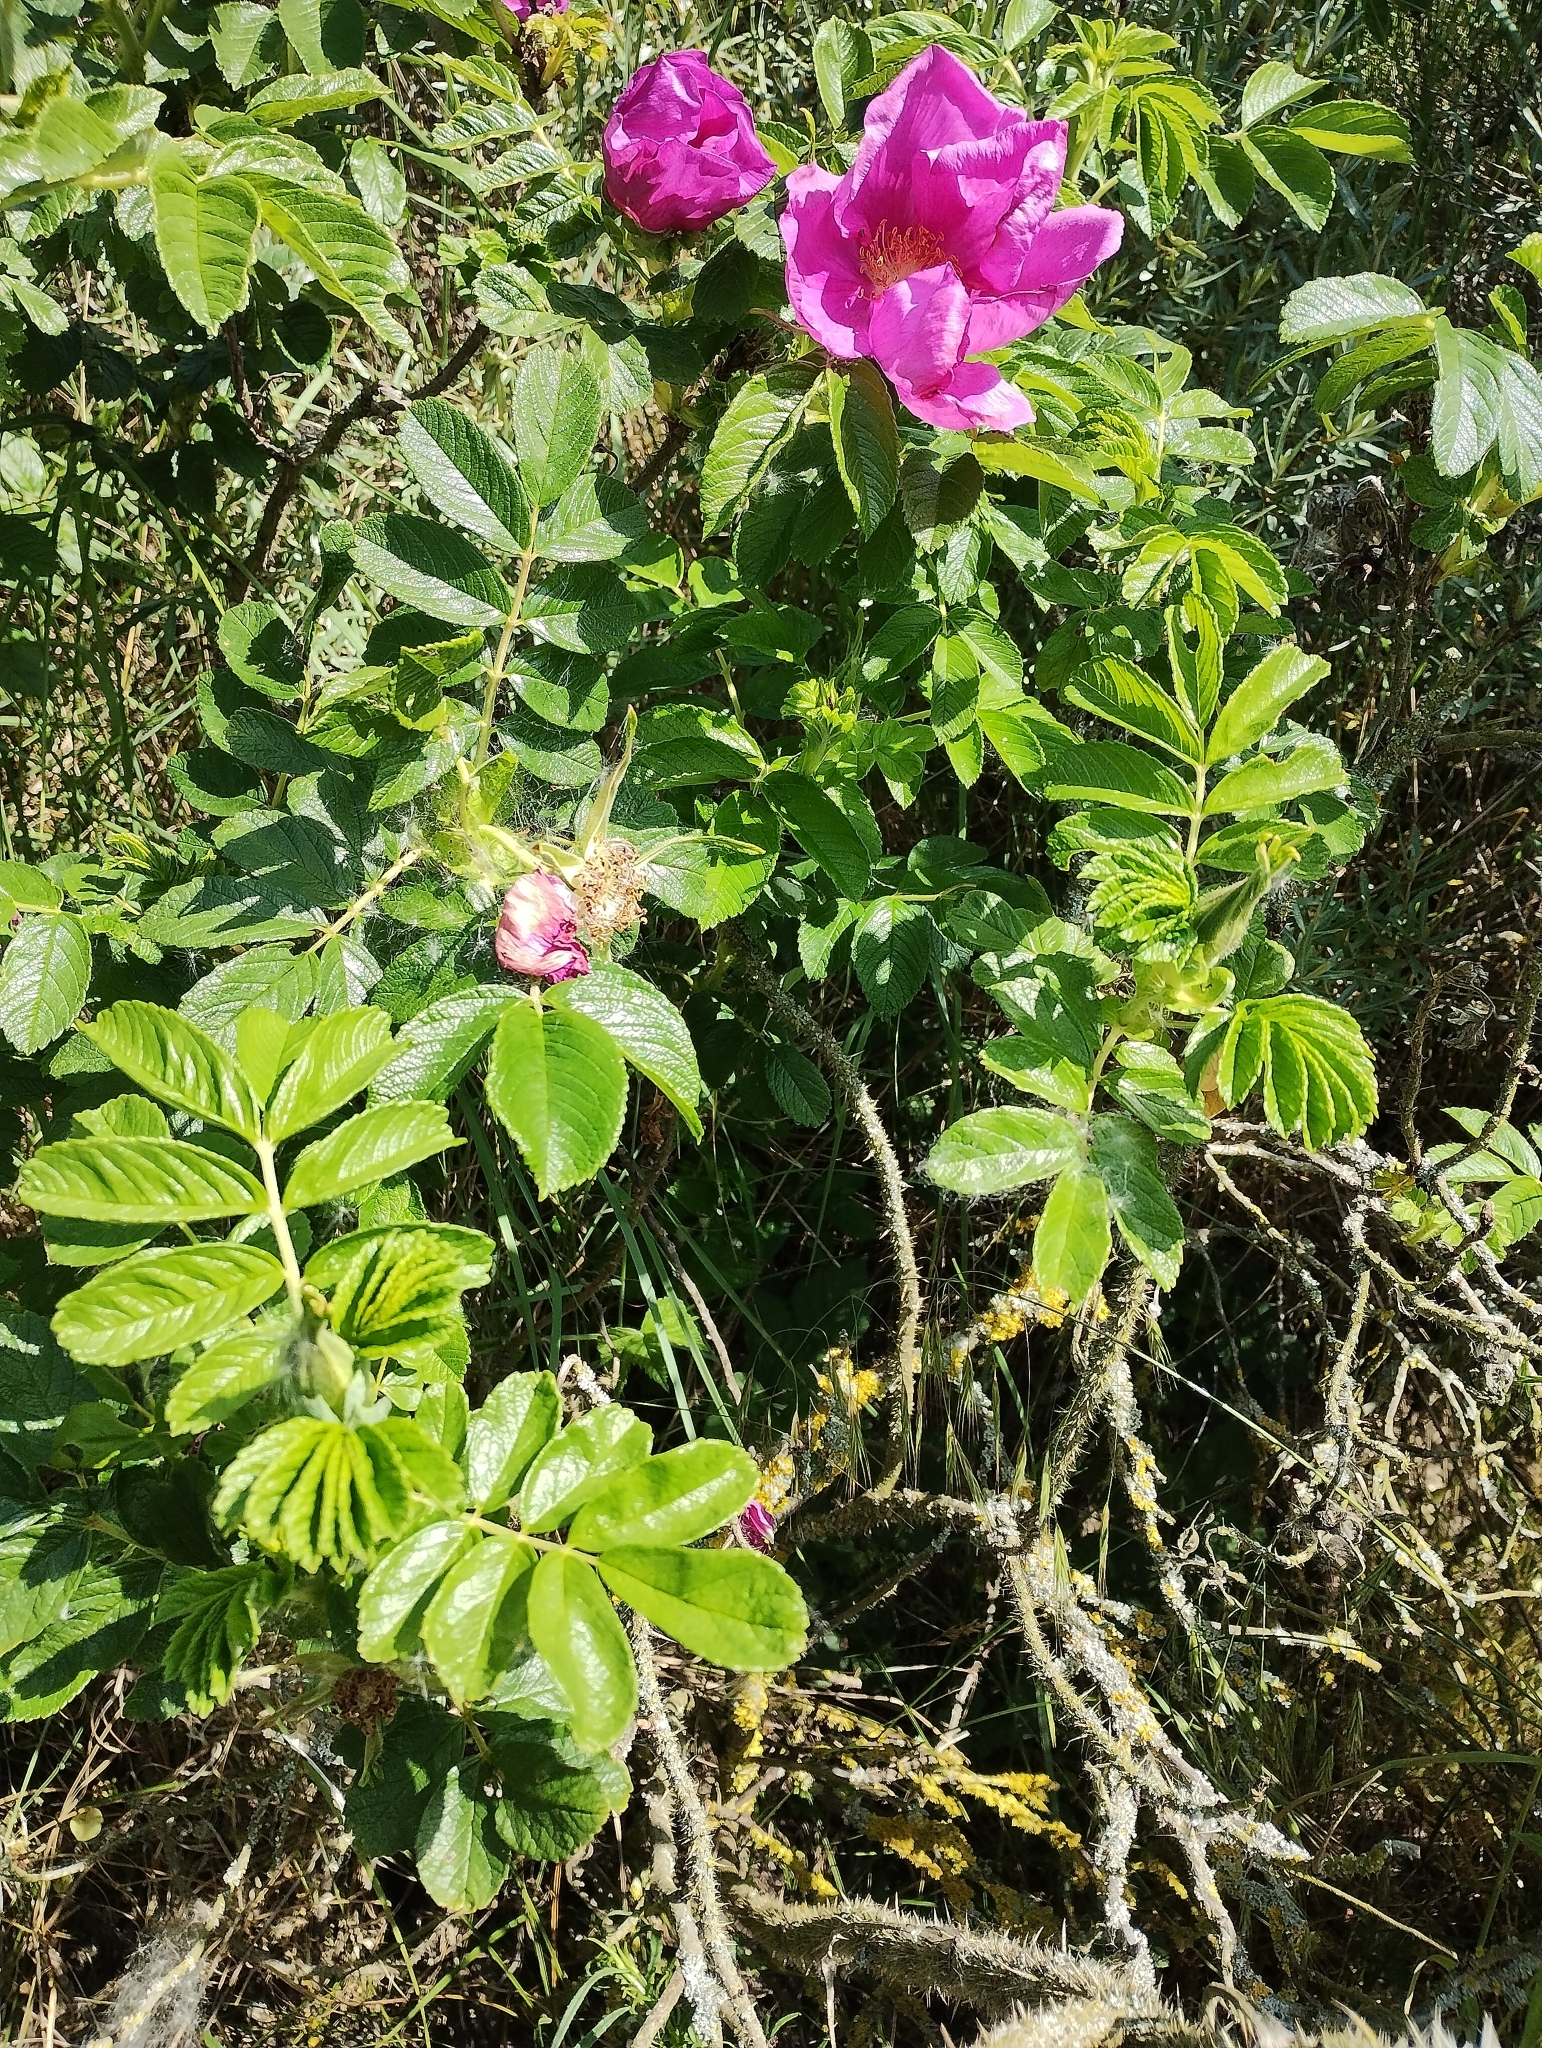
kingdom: Plantae
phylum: Tracheophyta
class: Magnoliopsida
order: Rosales
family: Rosaceae
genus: Rosa
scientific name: Rosa rugosa
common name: Japanese rose
